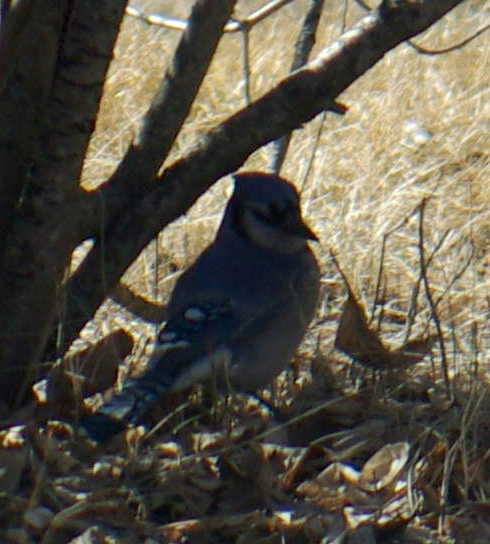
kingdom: Animalia
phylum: Chordata
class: Aves
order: Passeriformes
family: Corvidae
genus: Cyanocitta
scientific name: Cyanocitta cristata
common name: Blue jay
